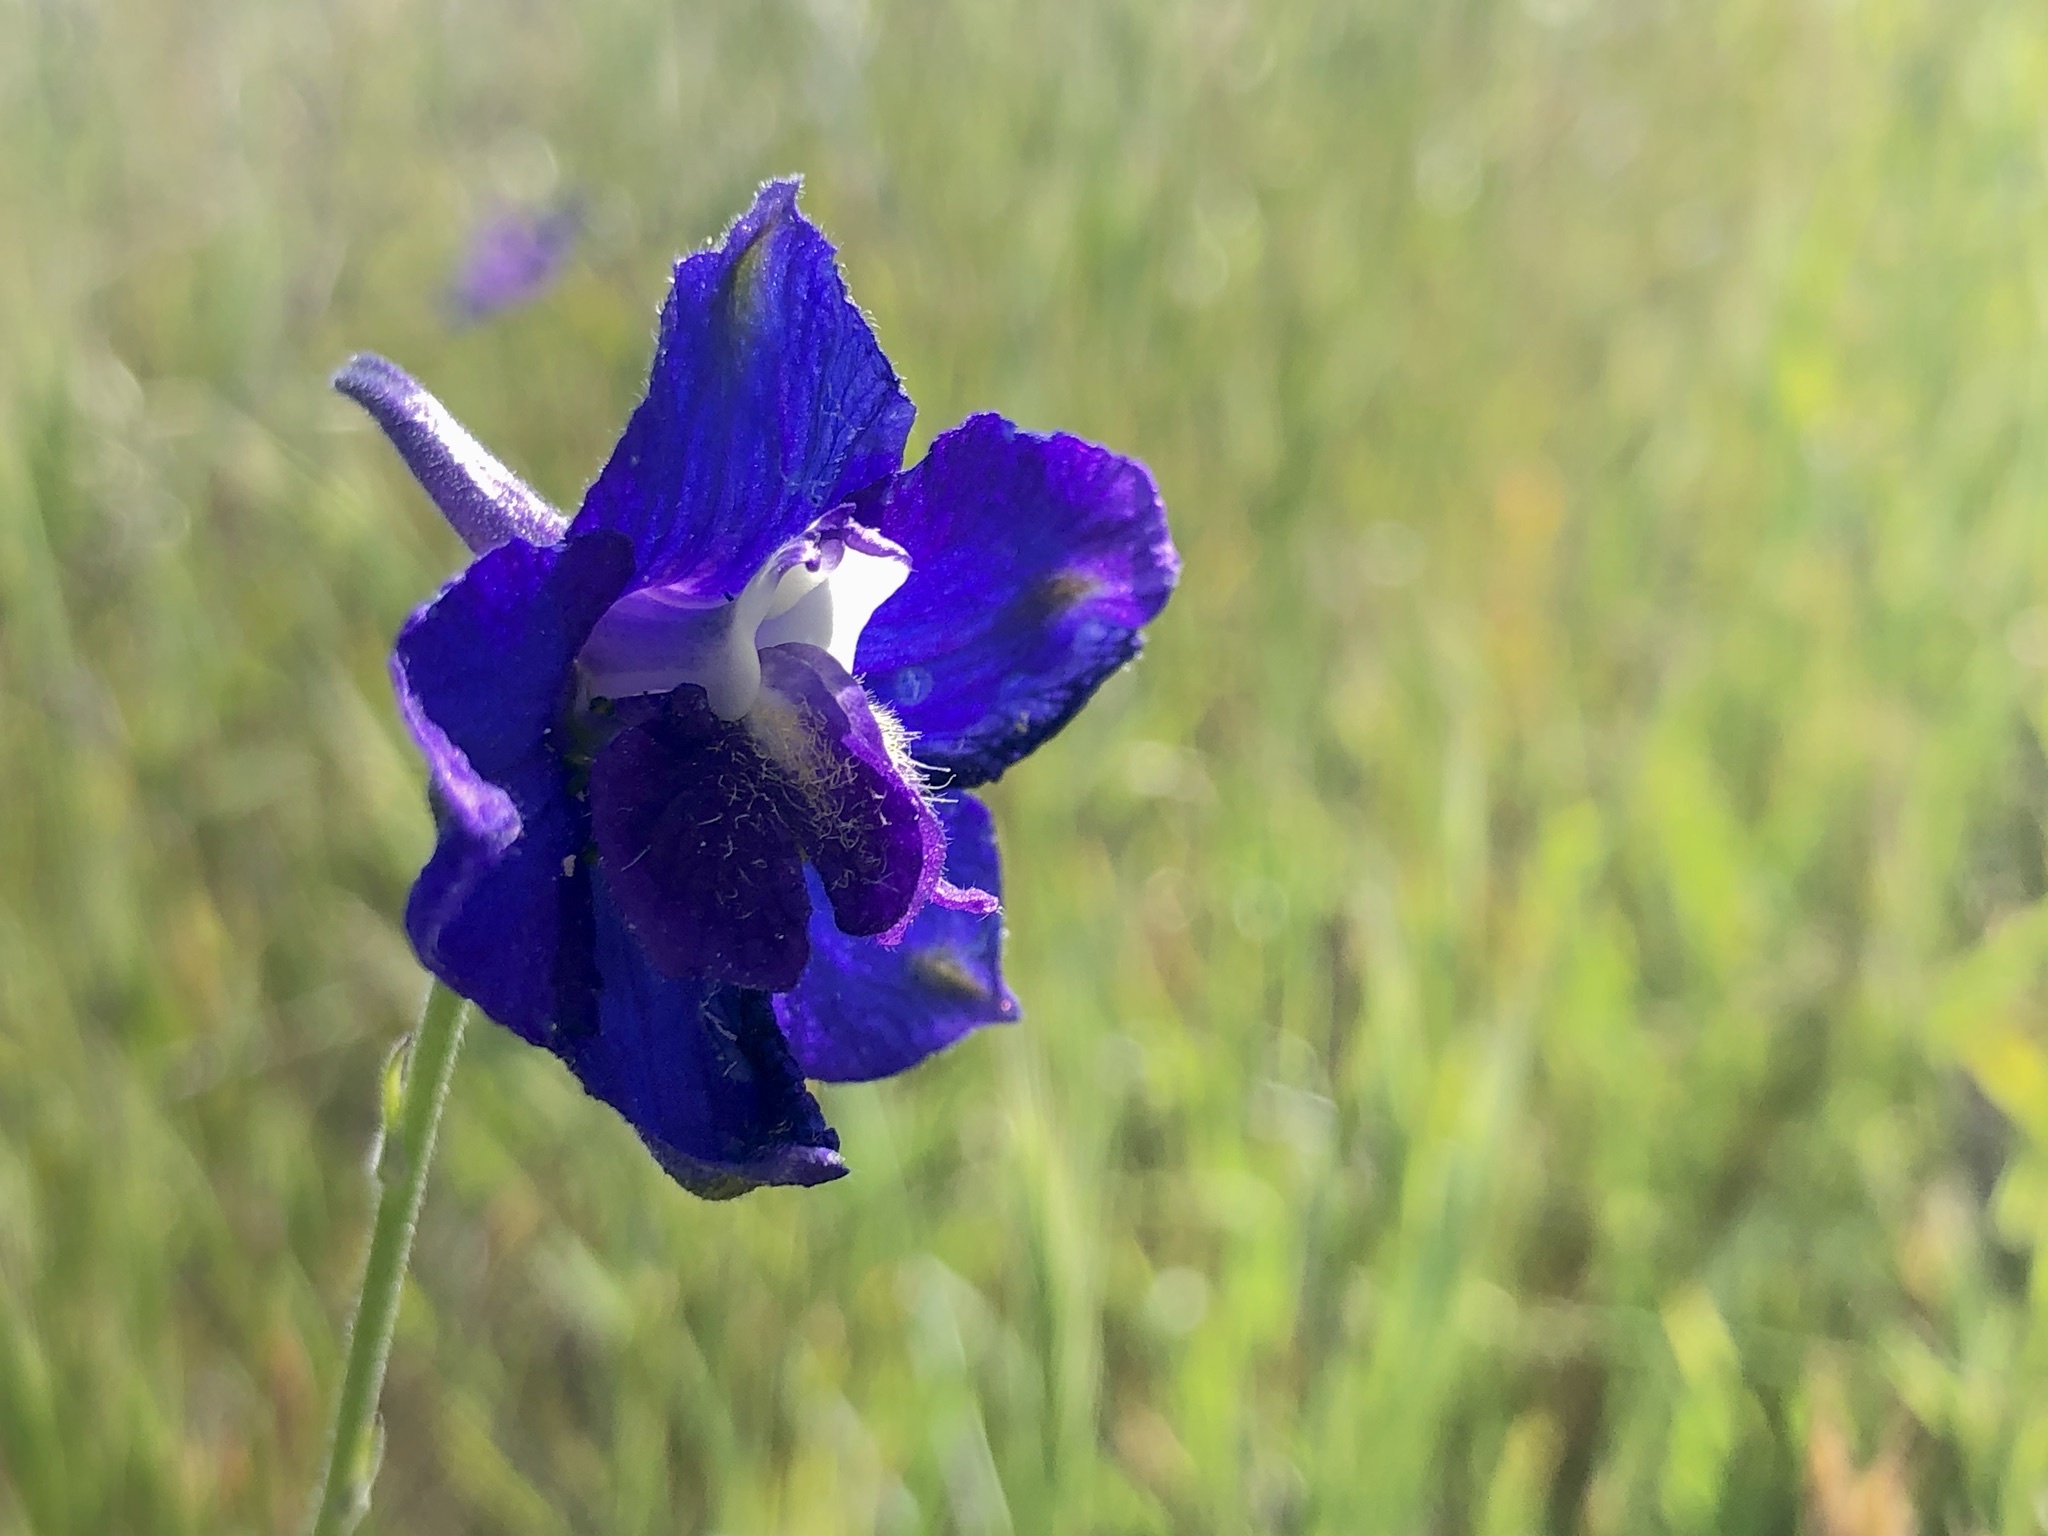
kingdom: Plantae
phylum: Tracheophyta
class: Magnoliopsida
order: Ranunculales
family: Ranunculaceae
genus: Delphinium
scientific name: Delphinium variegatum
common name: Royal larkspur
